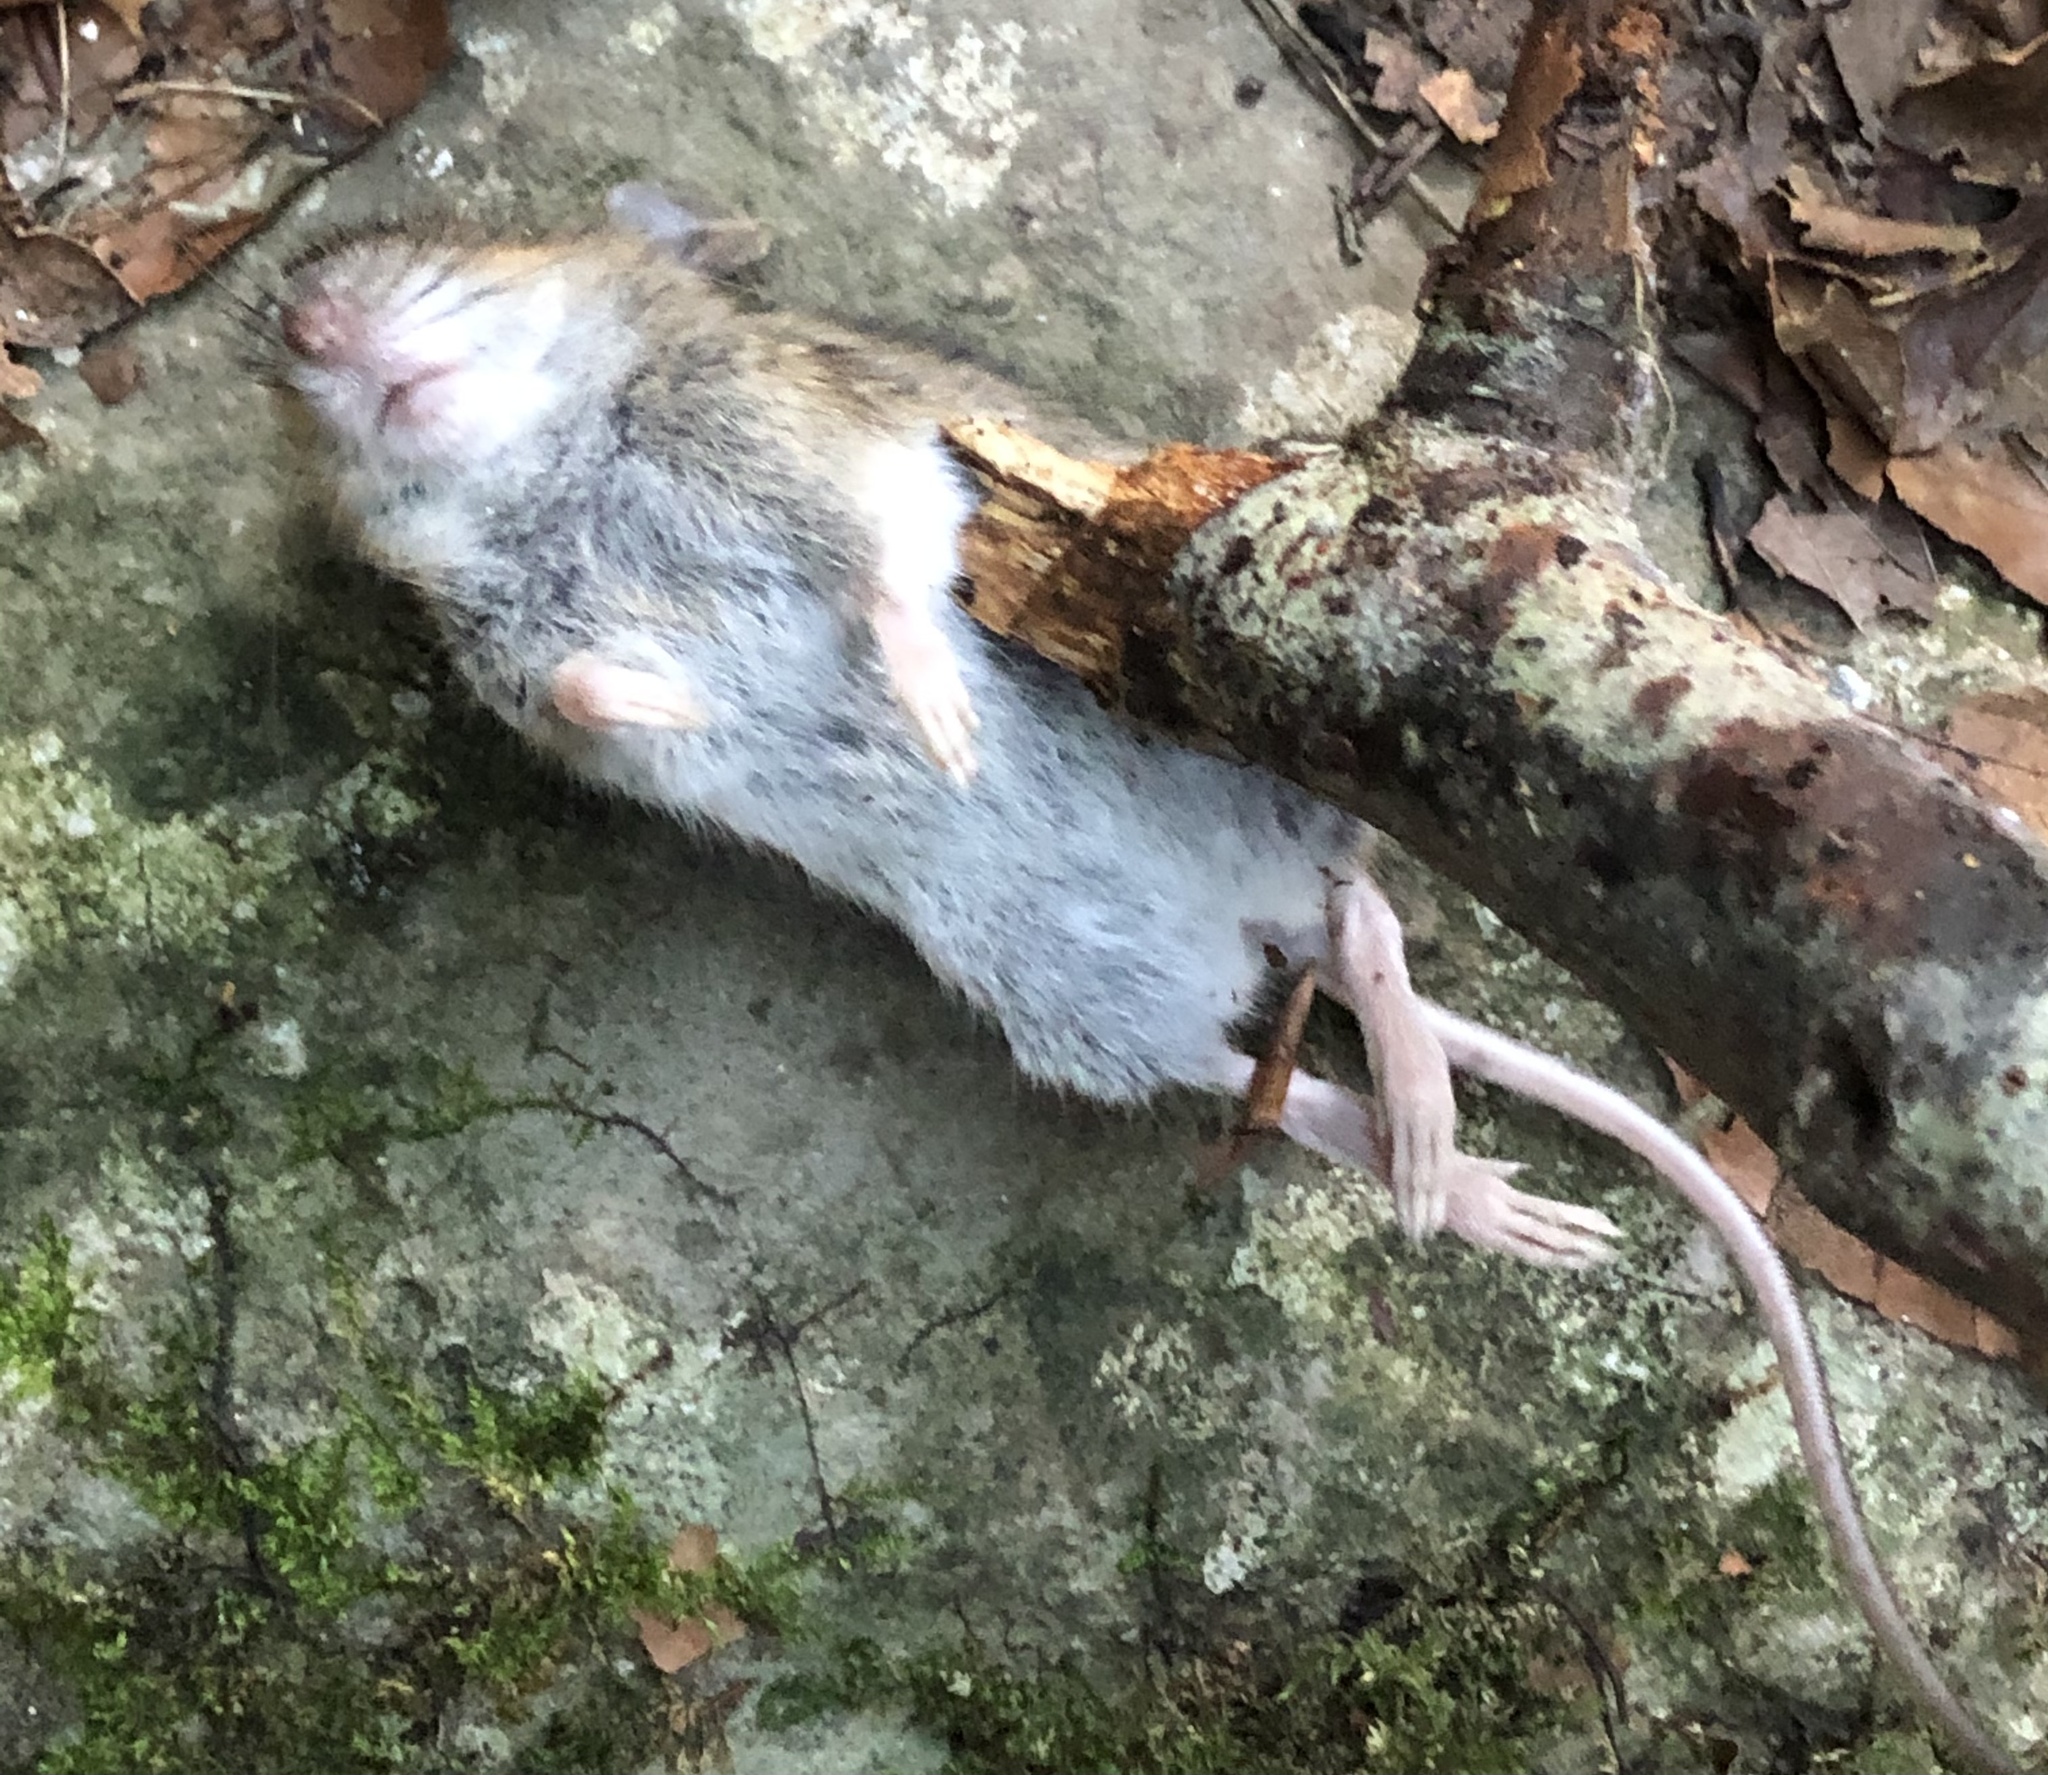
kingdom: Animalia
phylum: Chordata
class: Mammalia
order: Rodentia
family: Muridae
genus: Apodemus
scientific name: Apodemus sylvaticus
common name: Wood mouse
